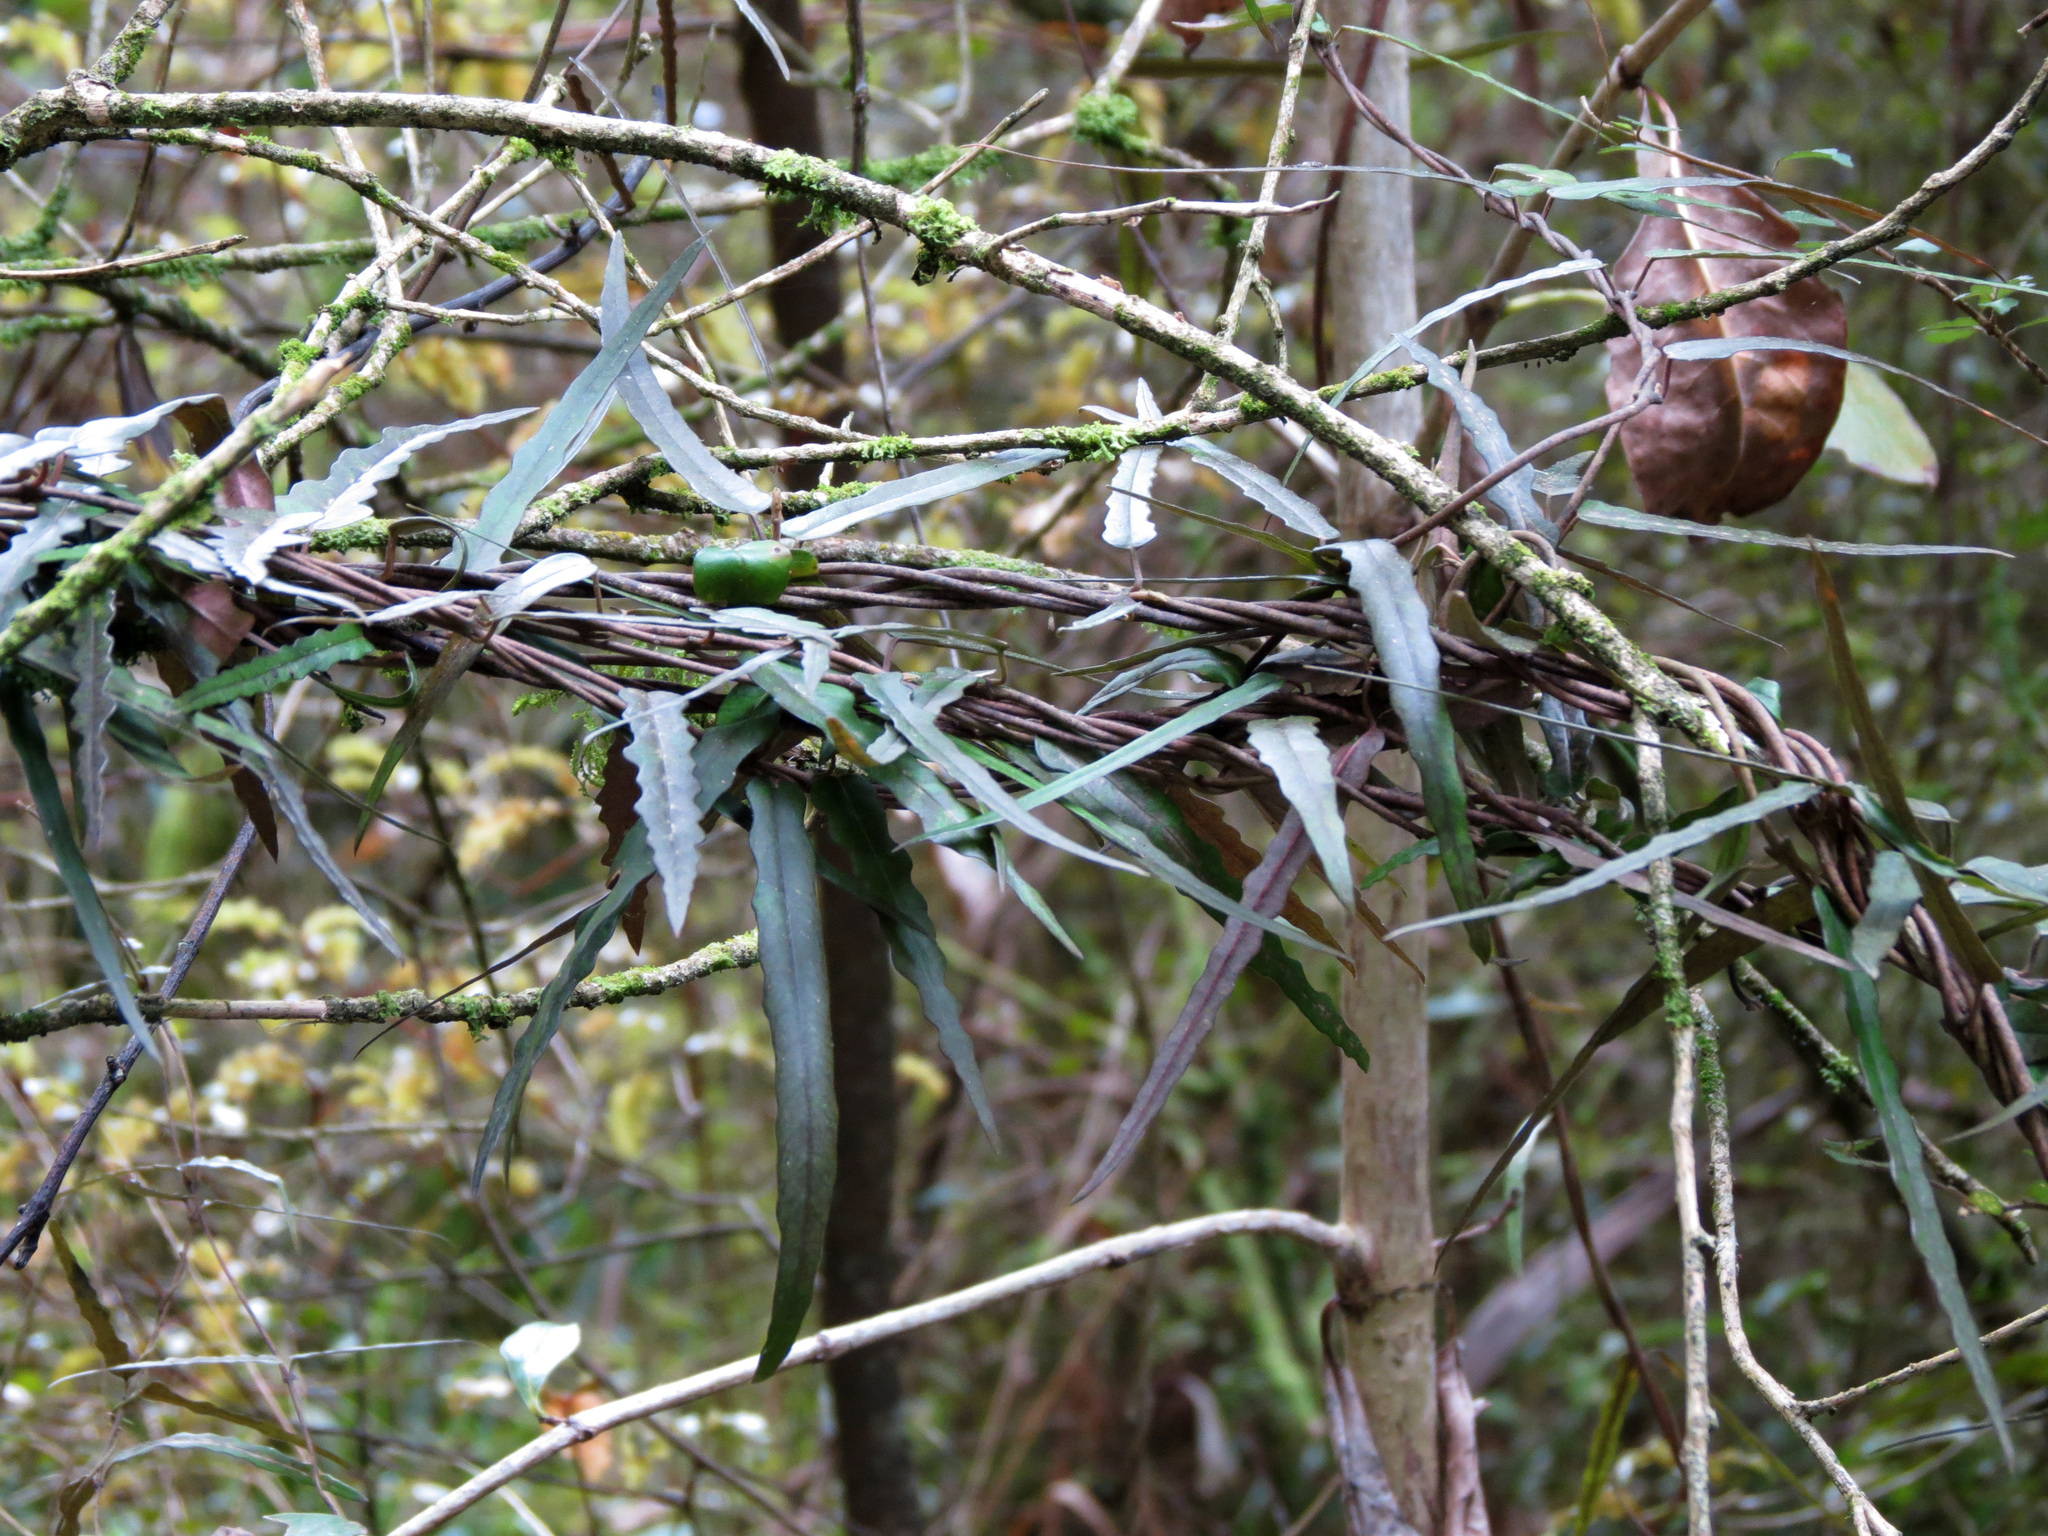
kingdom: Plantae
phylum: Tracheophyta
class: Magnoliopsida
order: Gentianales
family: Apocynaceae
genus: Parsonsia
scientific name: Parsonsia heterophylla
